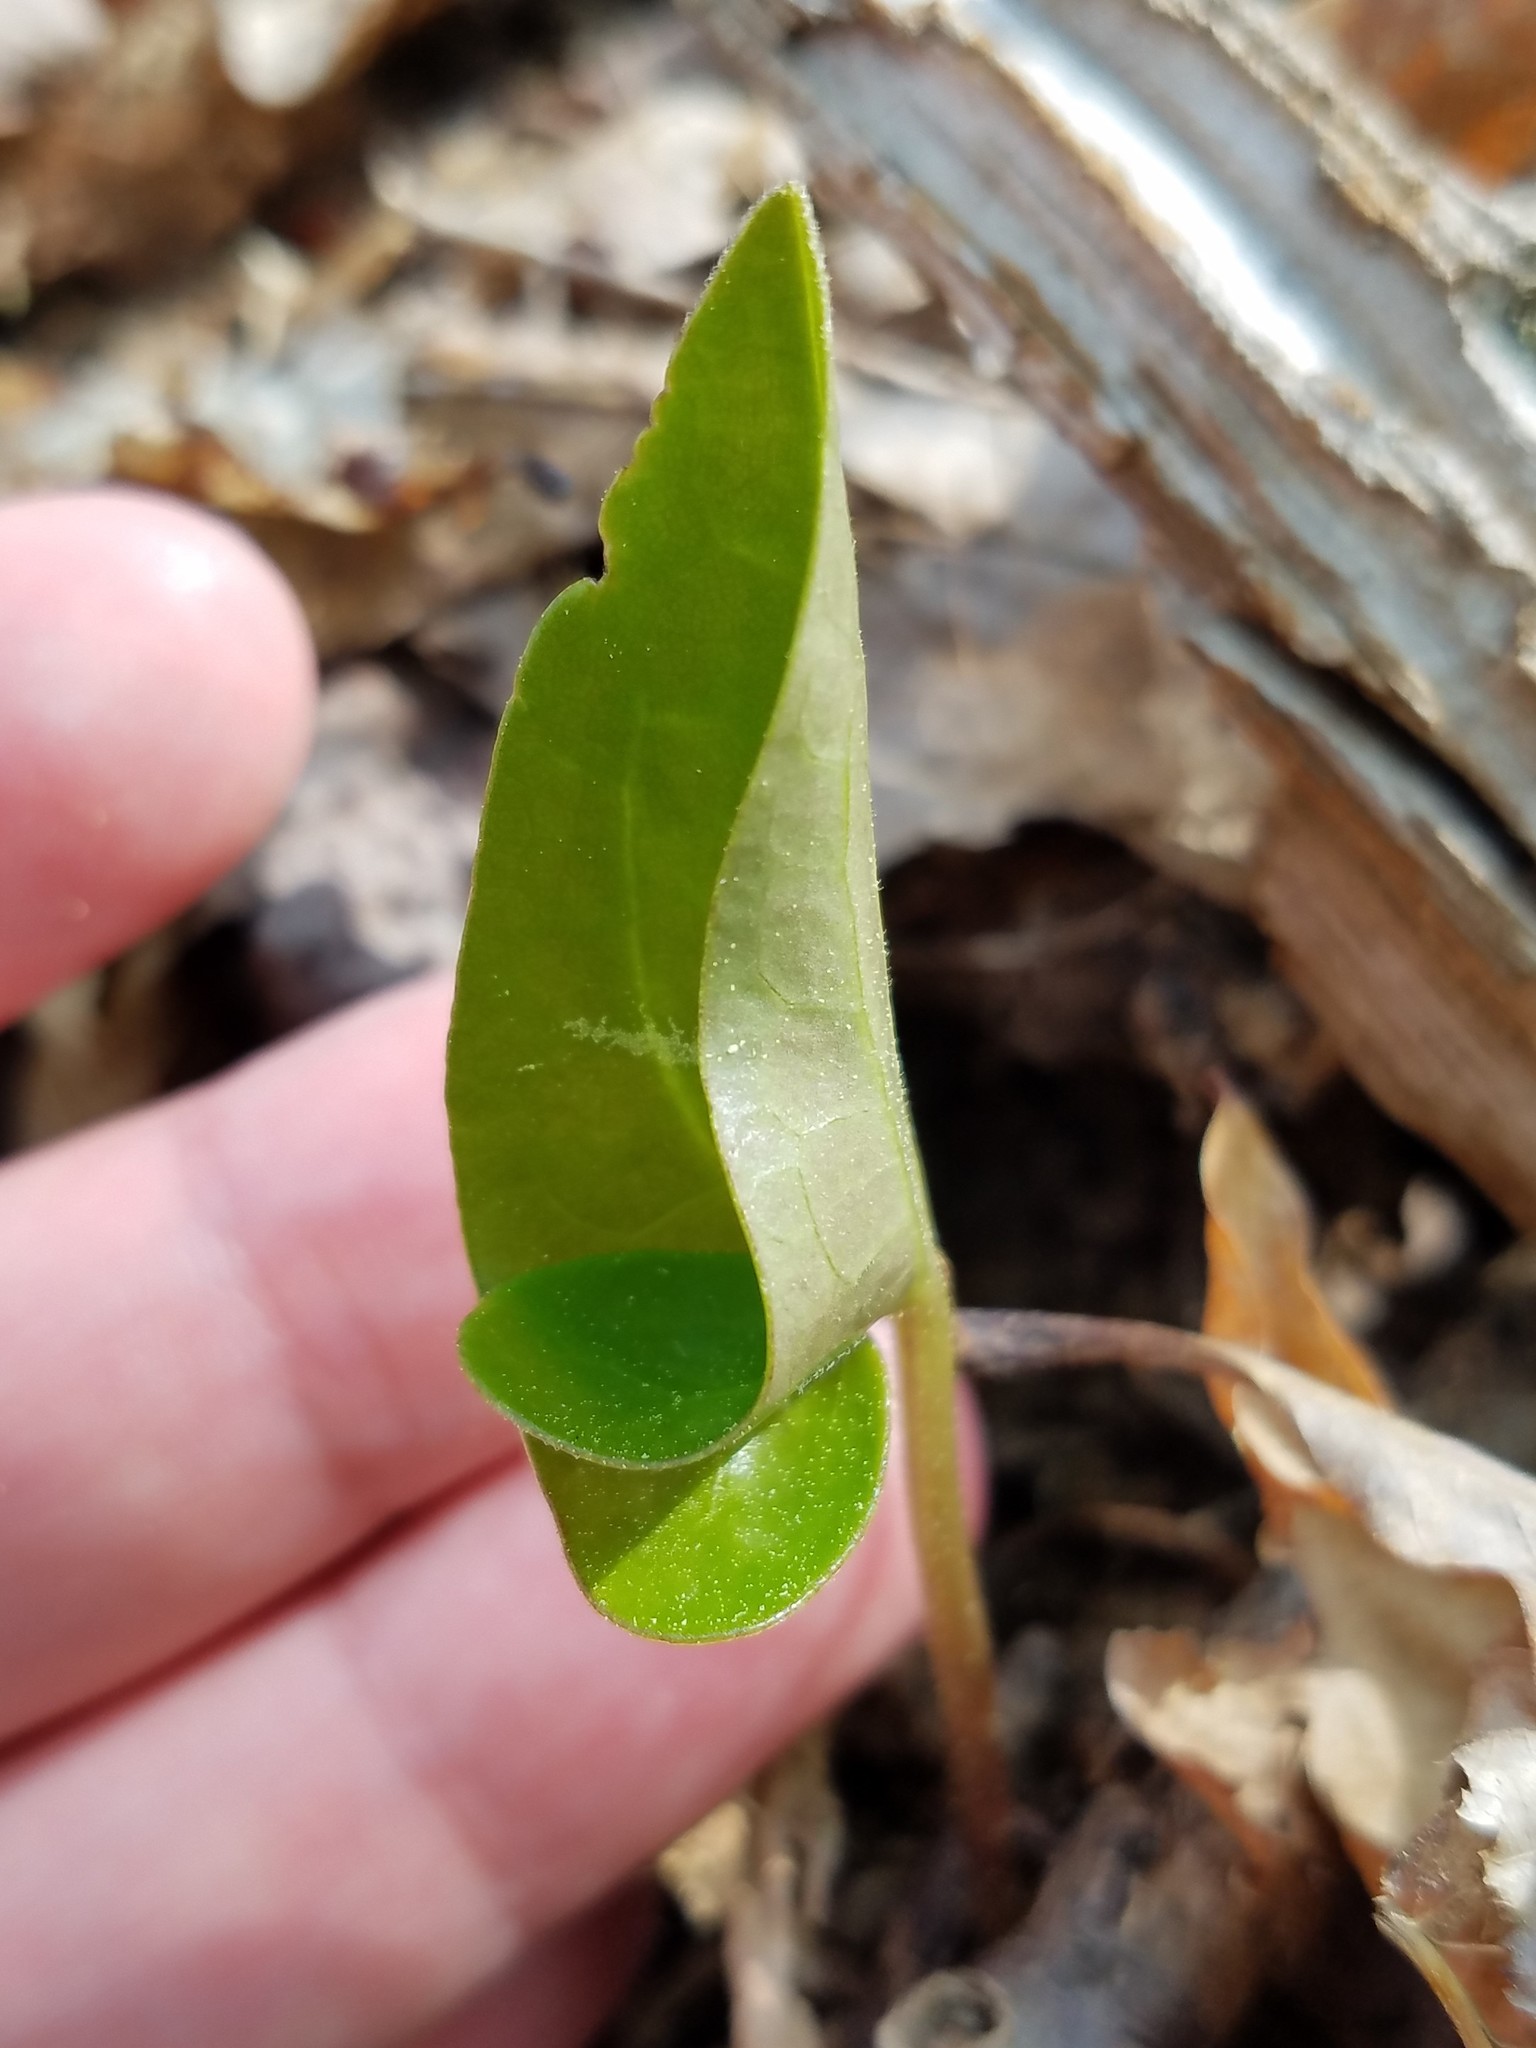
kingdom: Plantae
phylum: Tracheophyta
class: Magnoliopsida
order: Piperales
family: Aristolochiaceae
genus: Hexastylis
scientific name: Hexastylis arifolia
